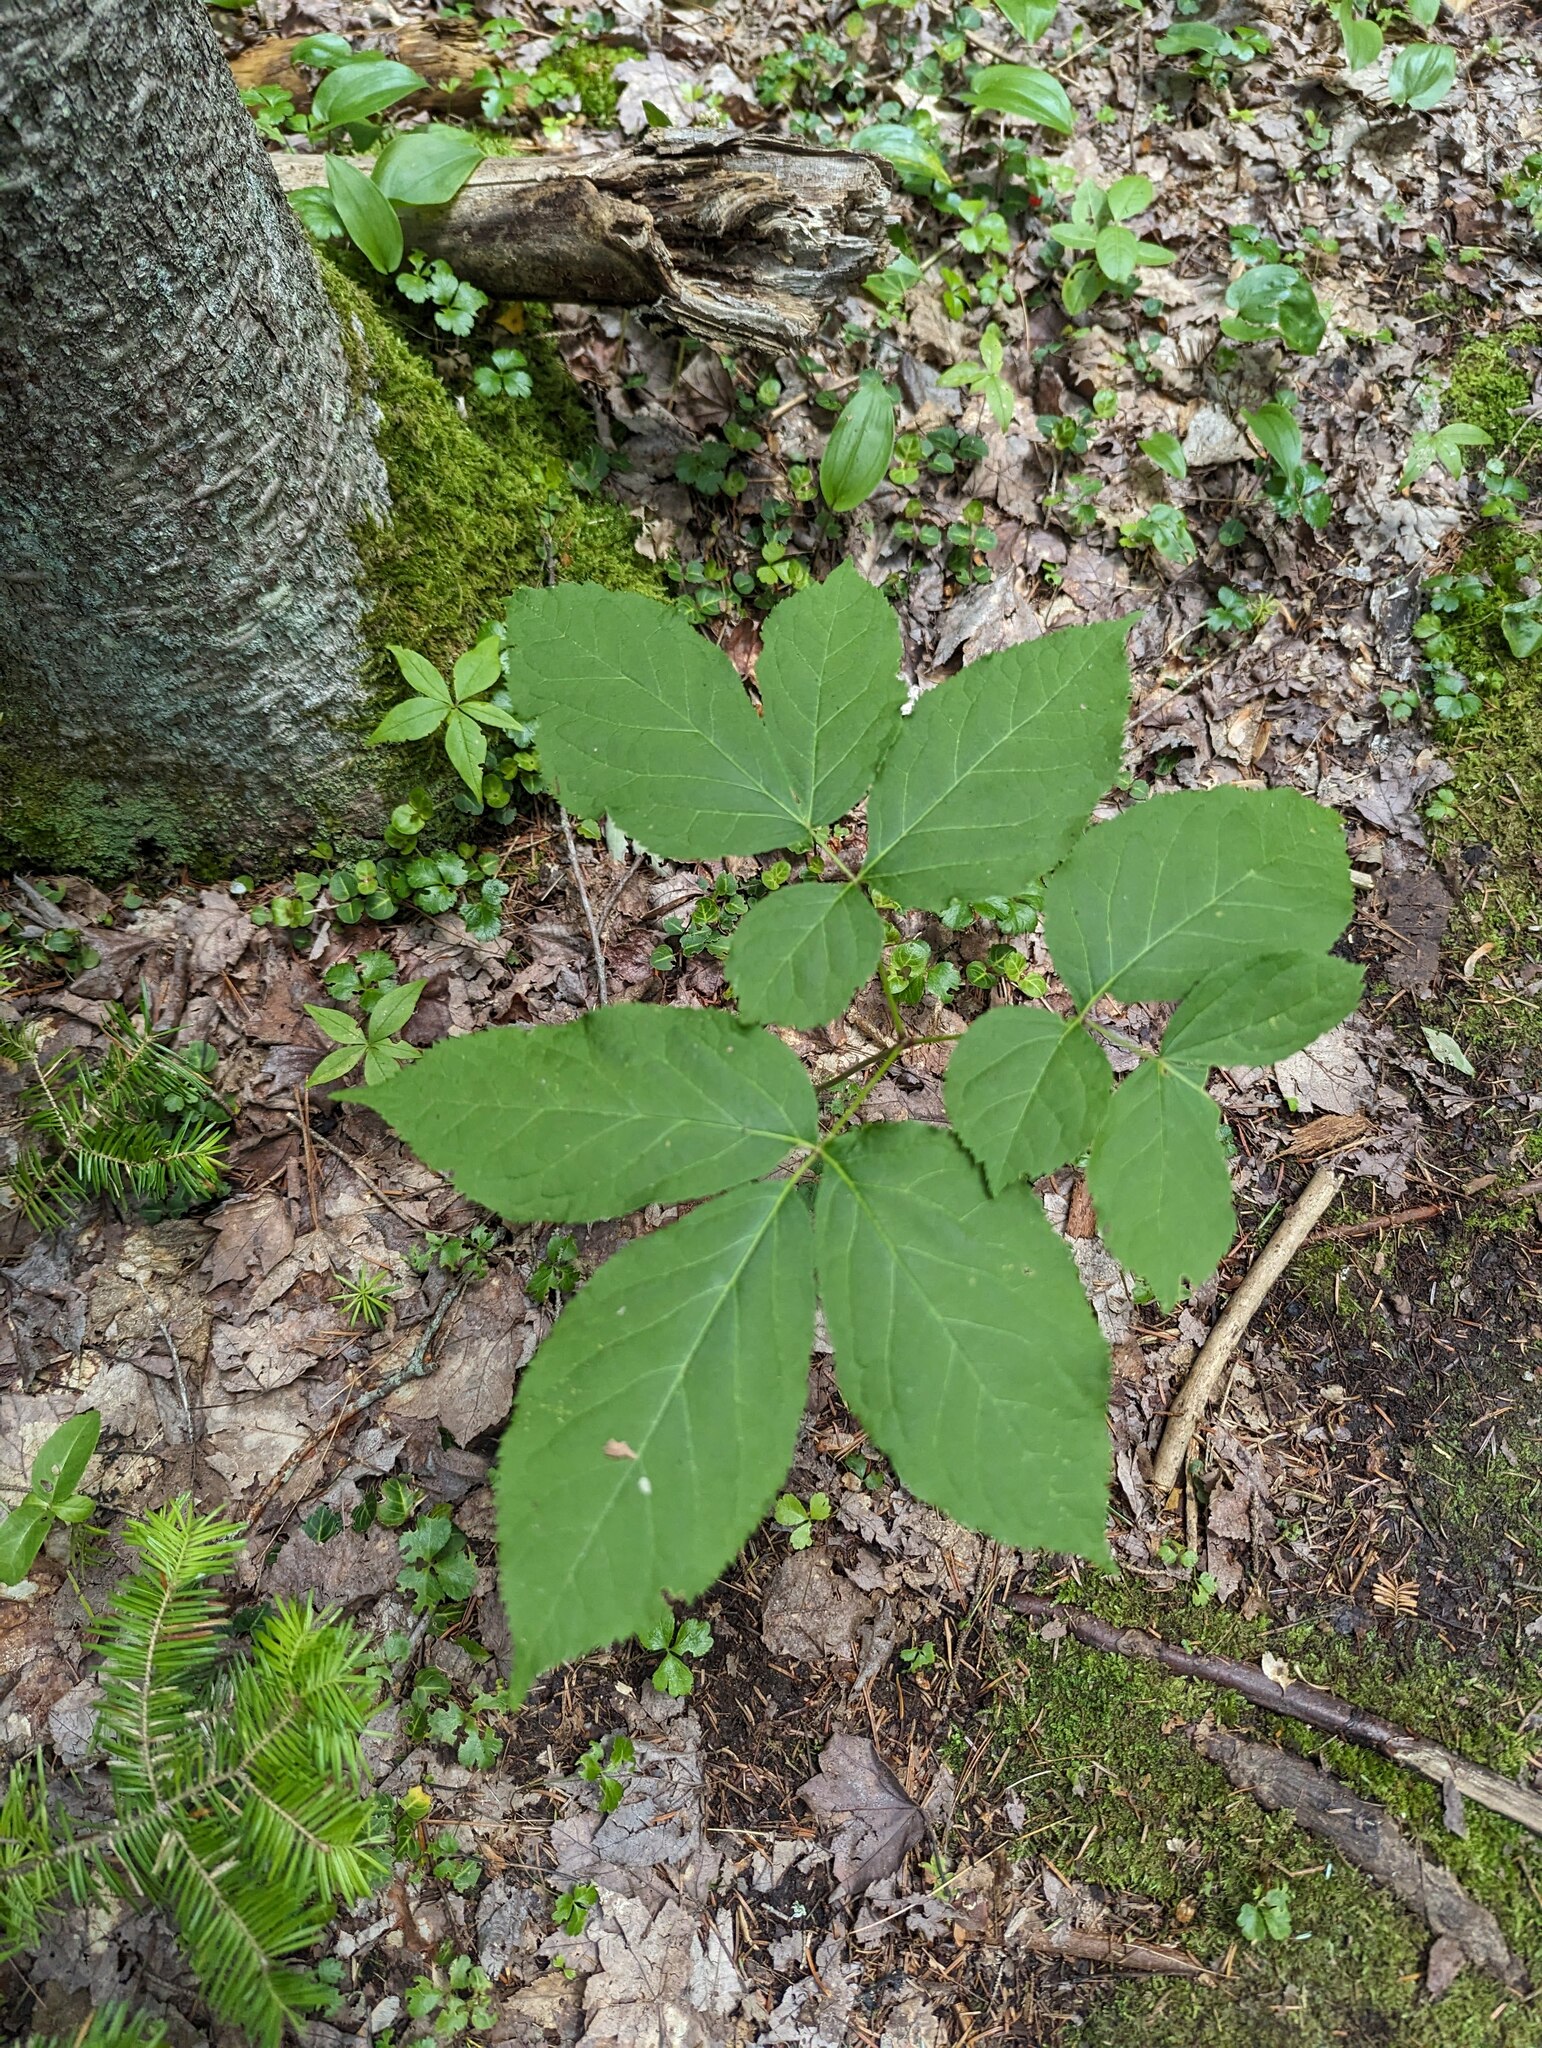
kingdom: Plantae
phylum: Tracheophyta
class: Magnoliopsida
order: Apiales
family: Araliaceae
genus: Aralia
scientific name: Aralia nudicaulis
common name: Wild sarsaparilla
